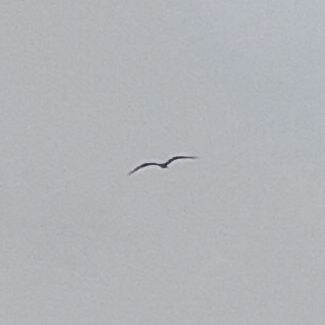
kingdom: Animalia
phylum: Chordata
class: Aves
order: Suliformes
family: Fregatidae
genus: Fregata
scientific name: Fregata magnificens
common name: Magnificent frigatebird
